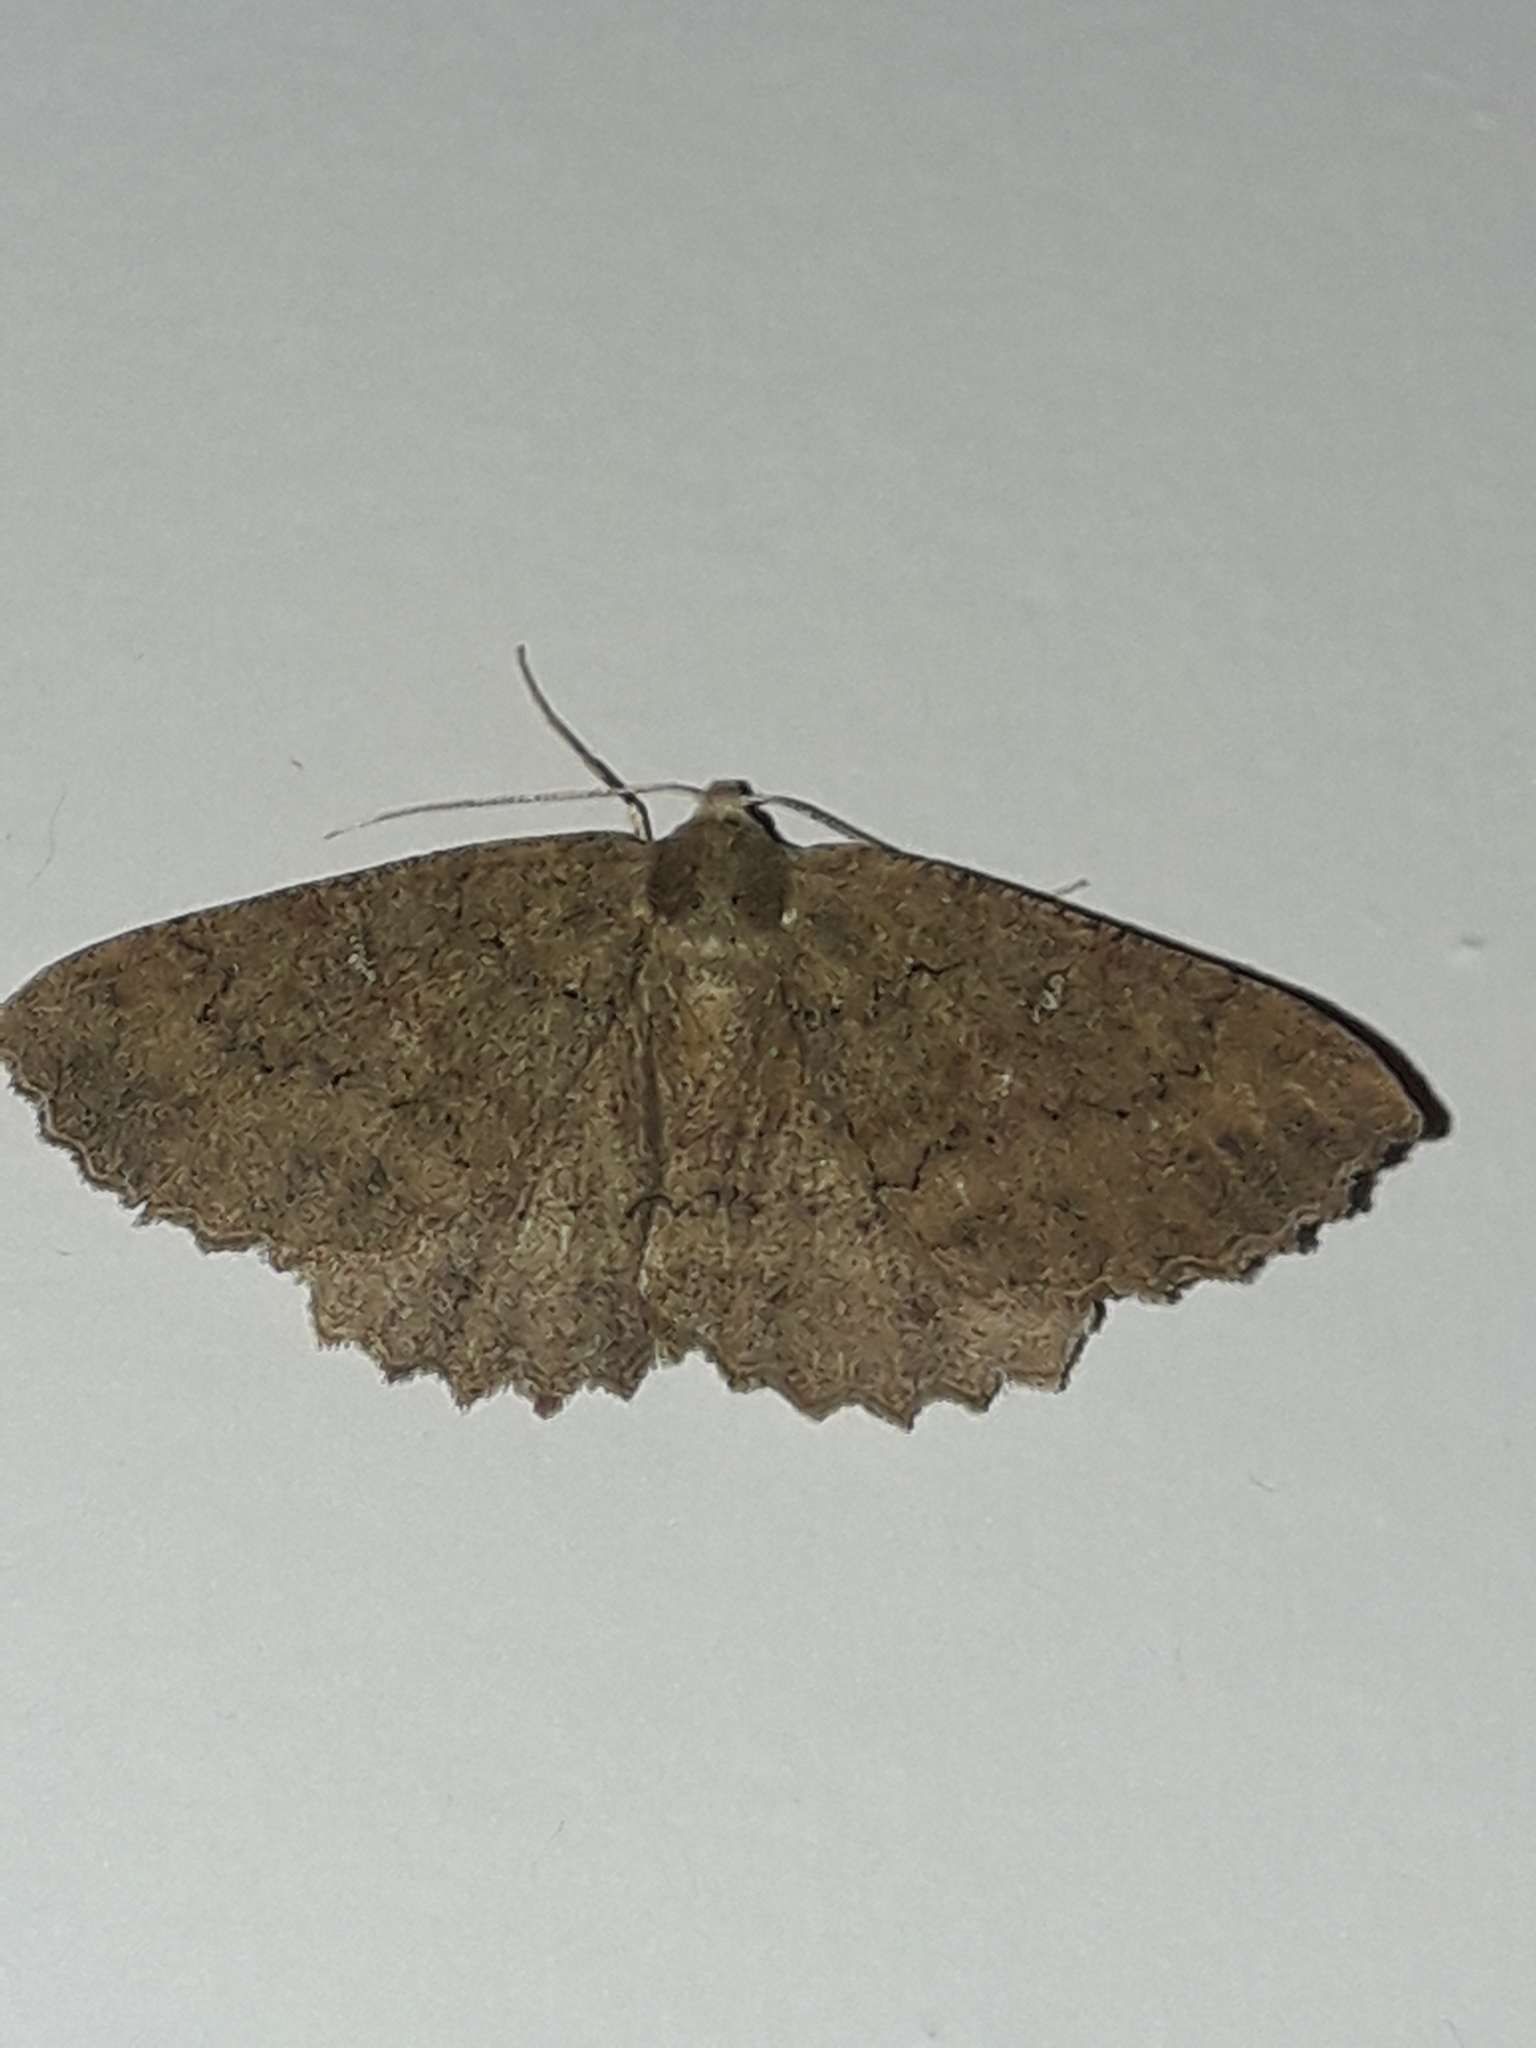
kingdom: Animalia
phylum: Arthropoda
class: Insecta
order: Lepidoptera
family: Geometridae
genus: Cleora
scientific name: Cleora scriptaria
